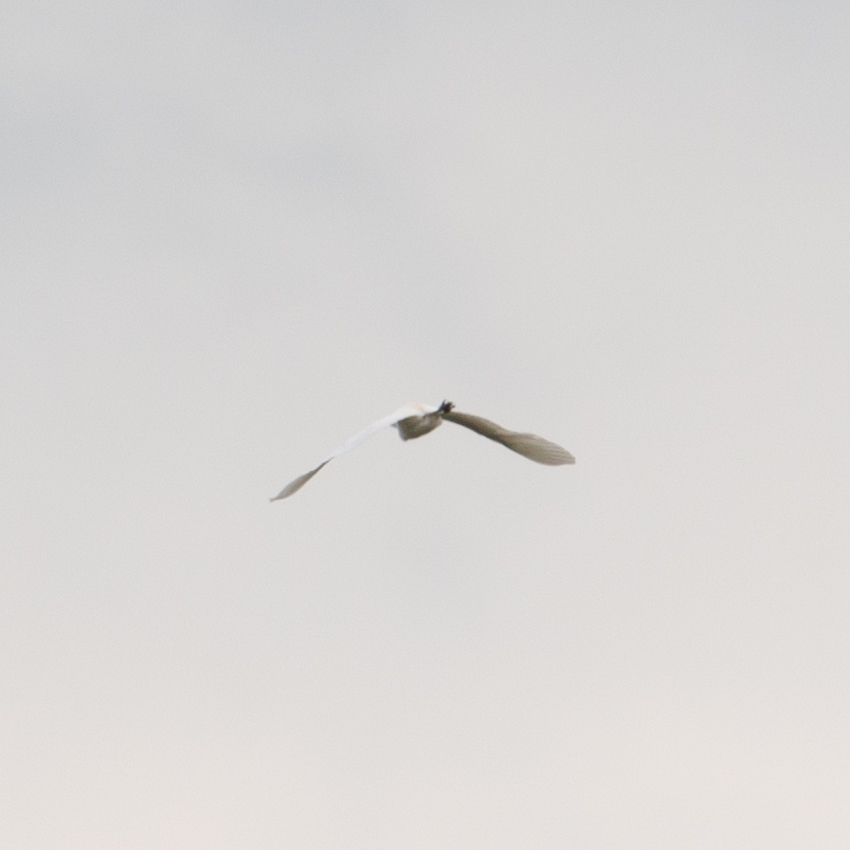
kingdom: Animalia
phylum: Chordata
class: Aves
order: Pelecaniformes
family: Ardeidae
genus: Bubulcus
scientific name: Bubulcus ibis
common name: Cattle egret
